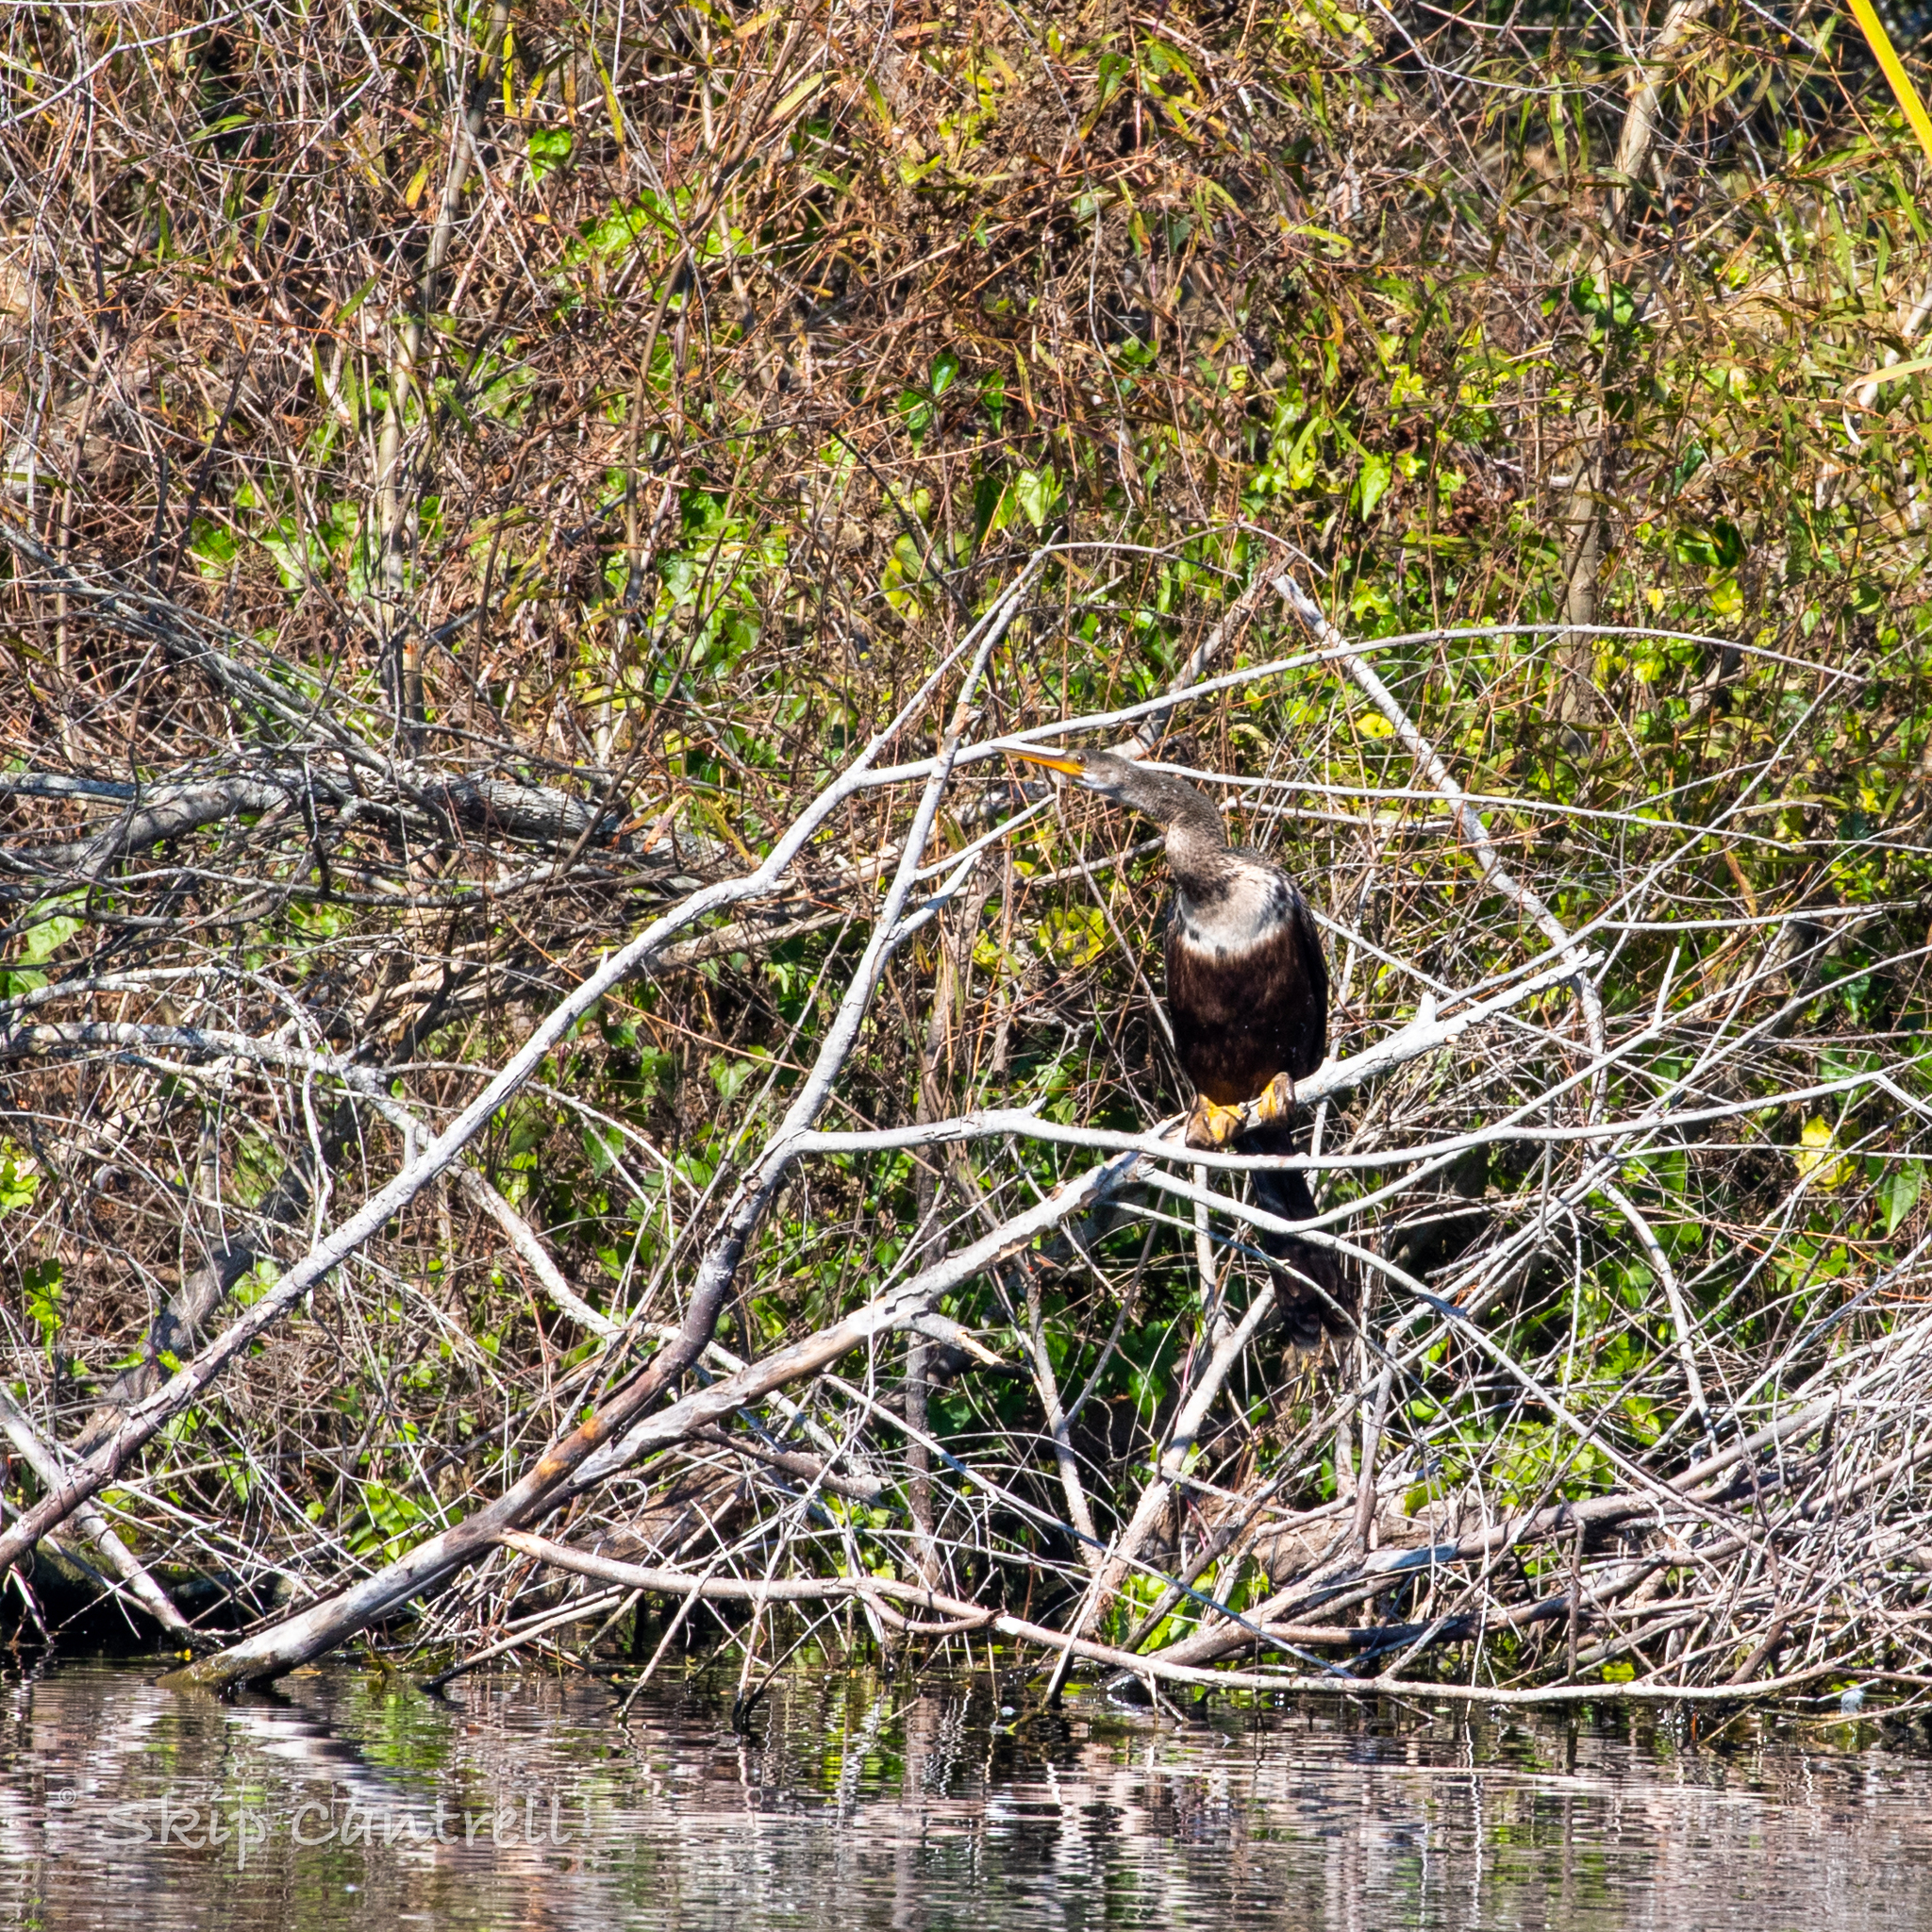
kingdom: Animalia
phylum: Chordata
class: Aves
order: Suliformes
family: Anhingidae
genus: Anhinga
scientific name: Anhinga anhinga
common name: Anhinga
